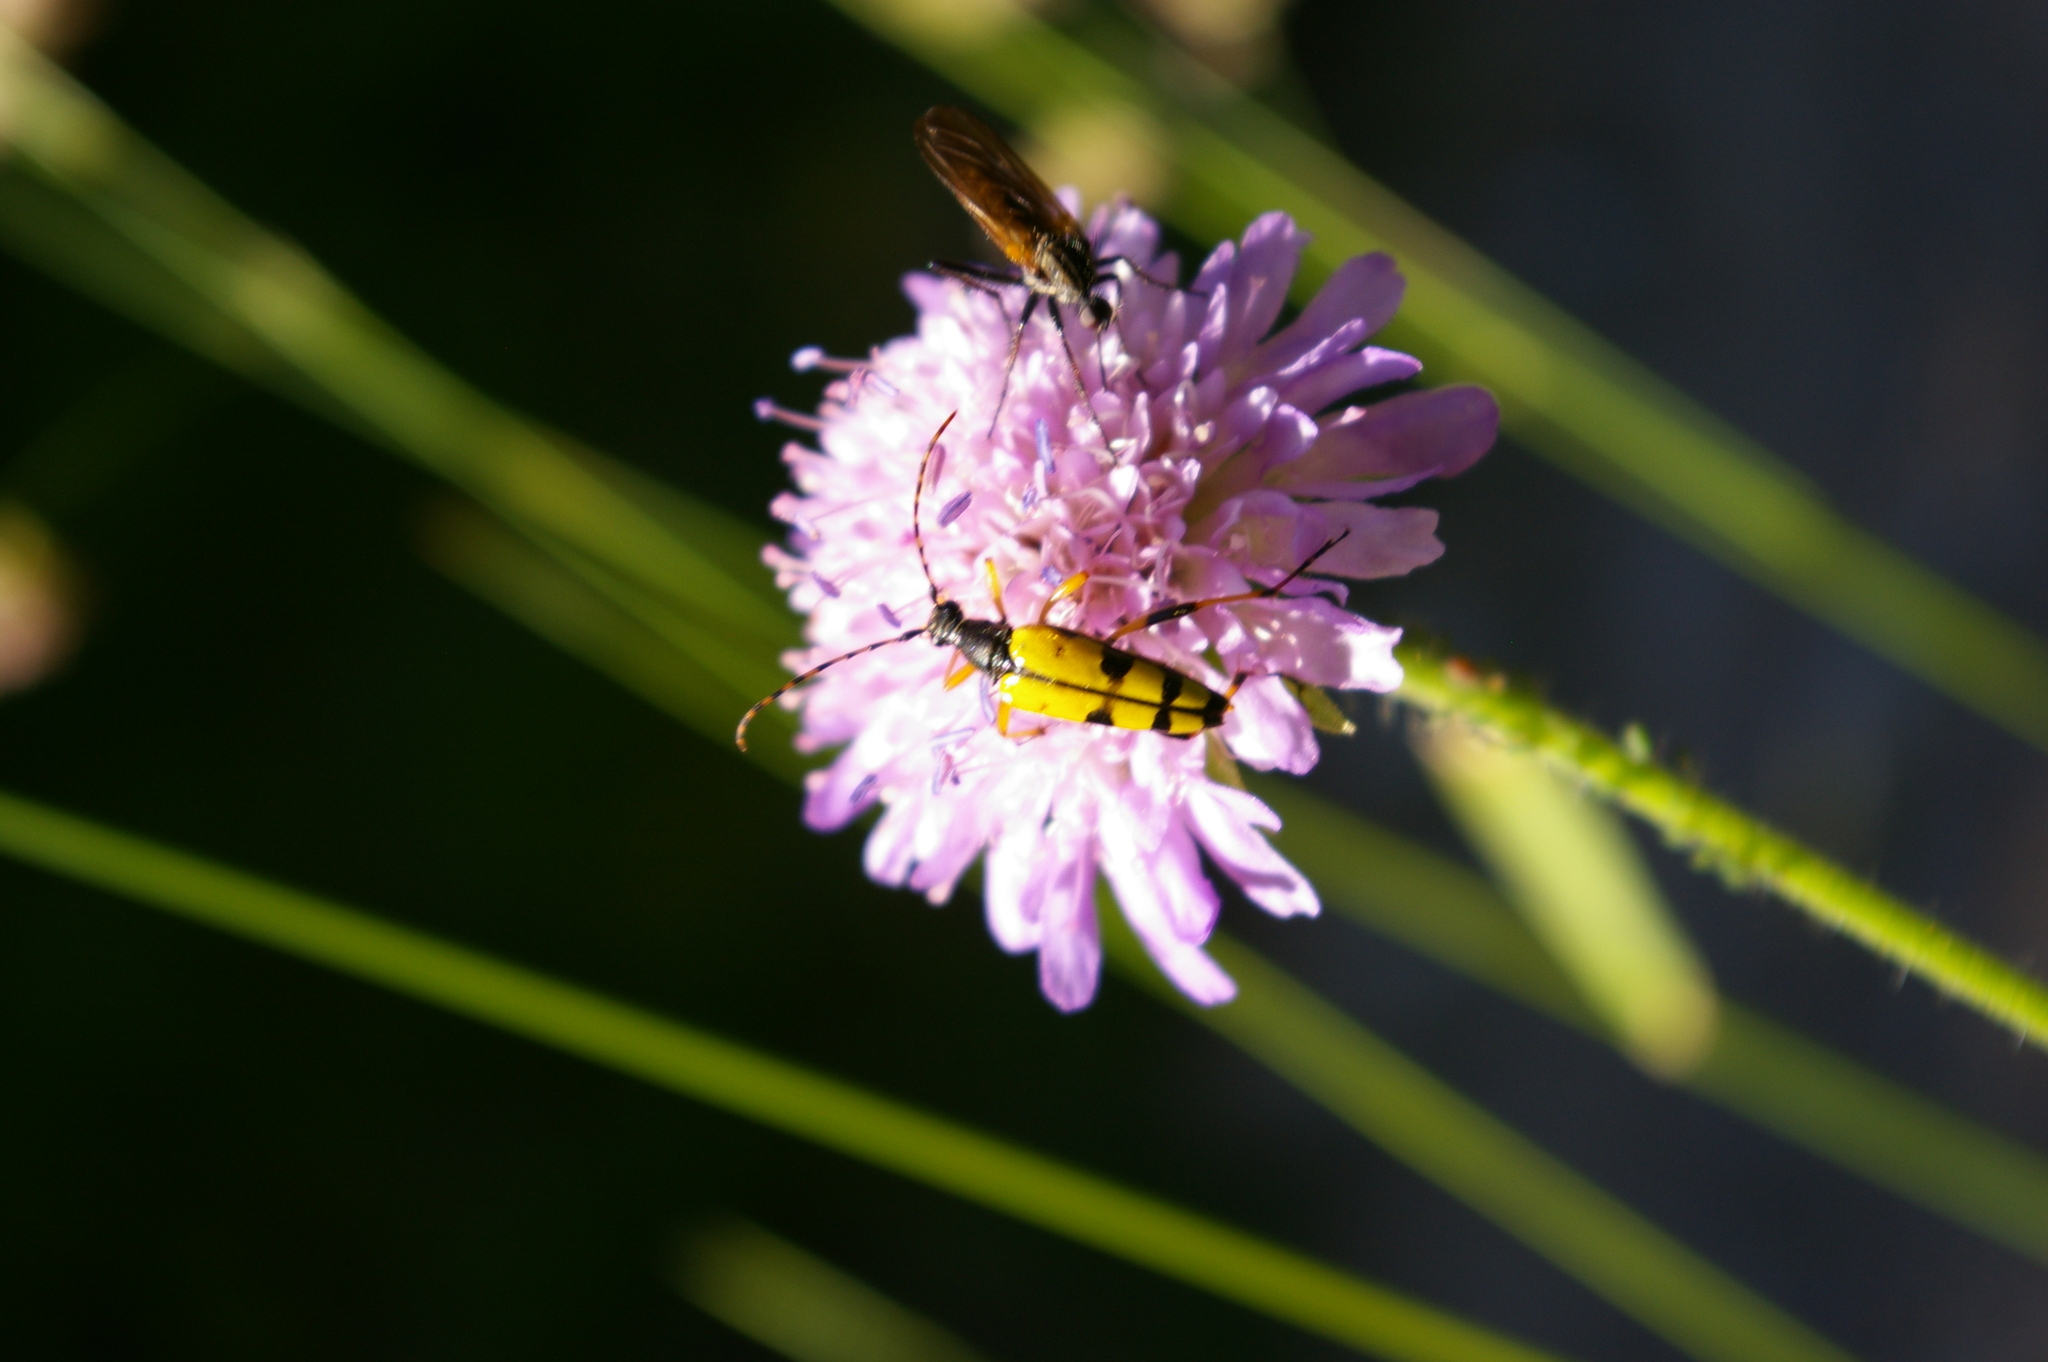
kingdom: Animalia
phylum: Arthropoda
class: Insecta
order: Coleoptera
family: Cerambycidae
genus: Rutpela
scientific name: Rutpela maculata
